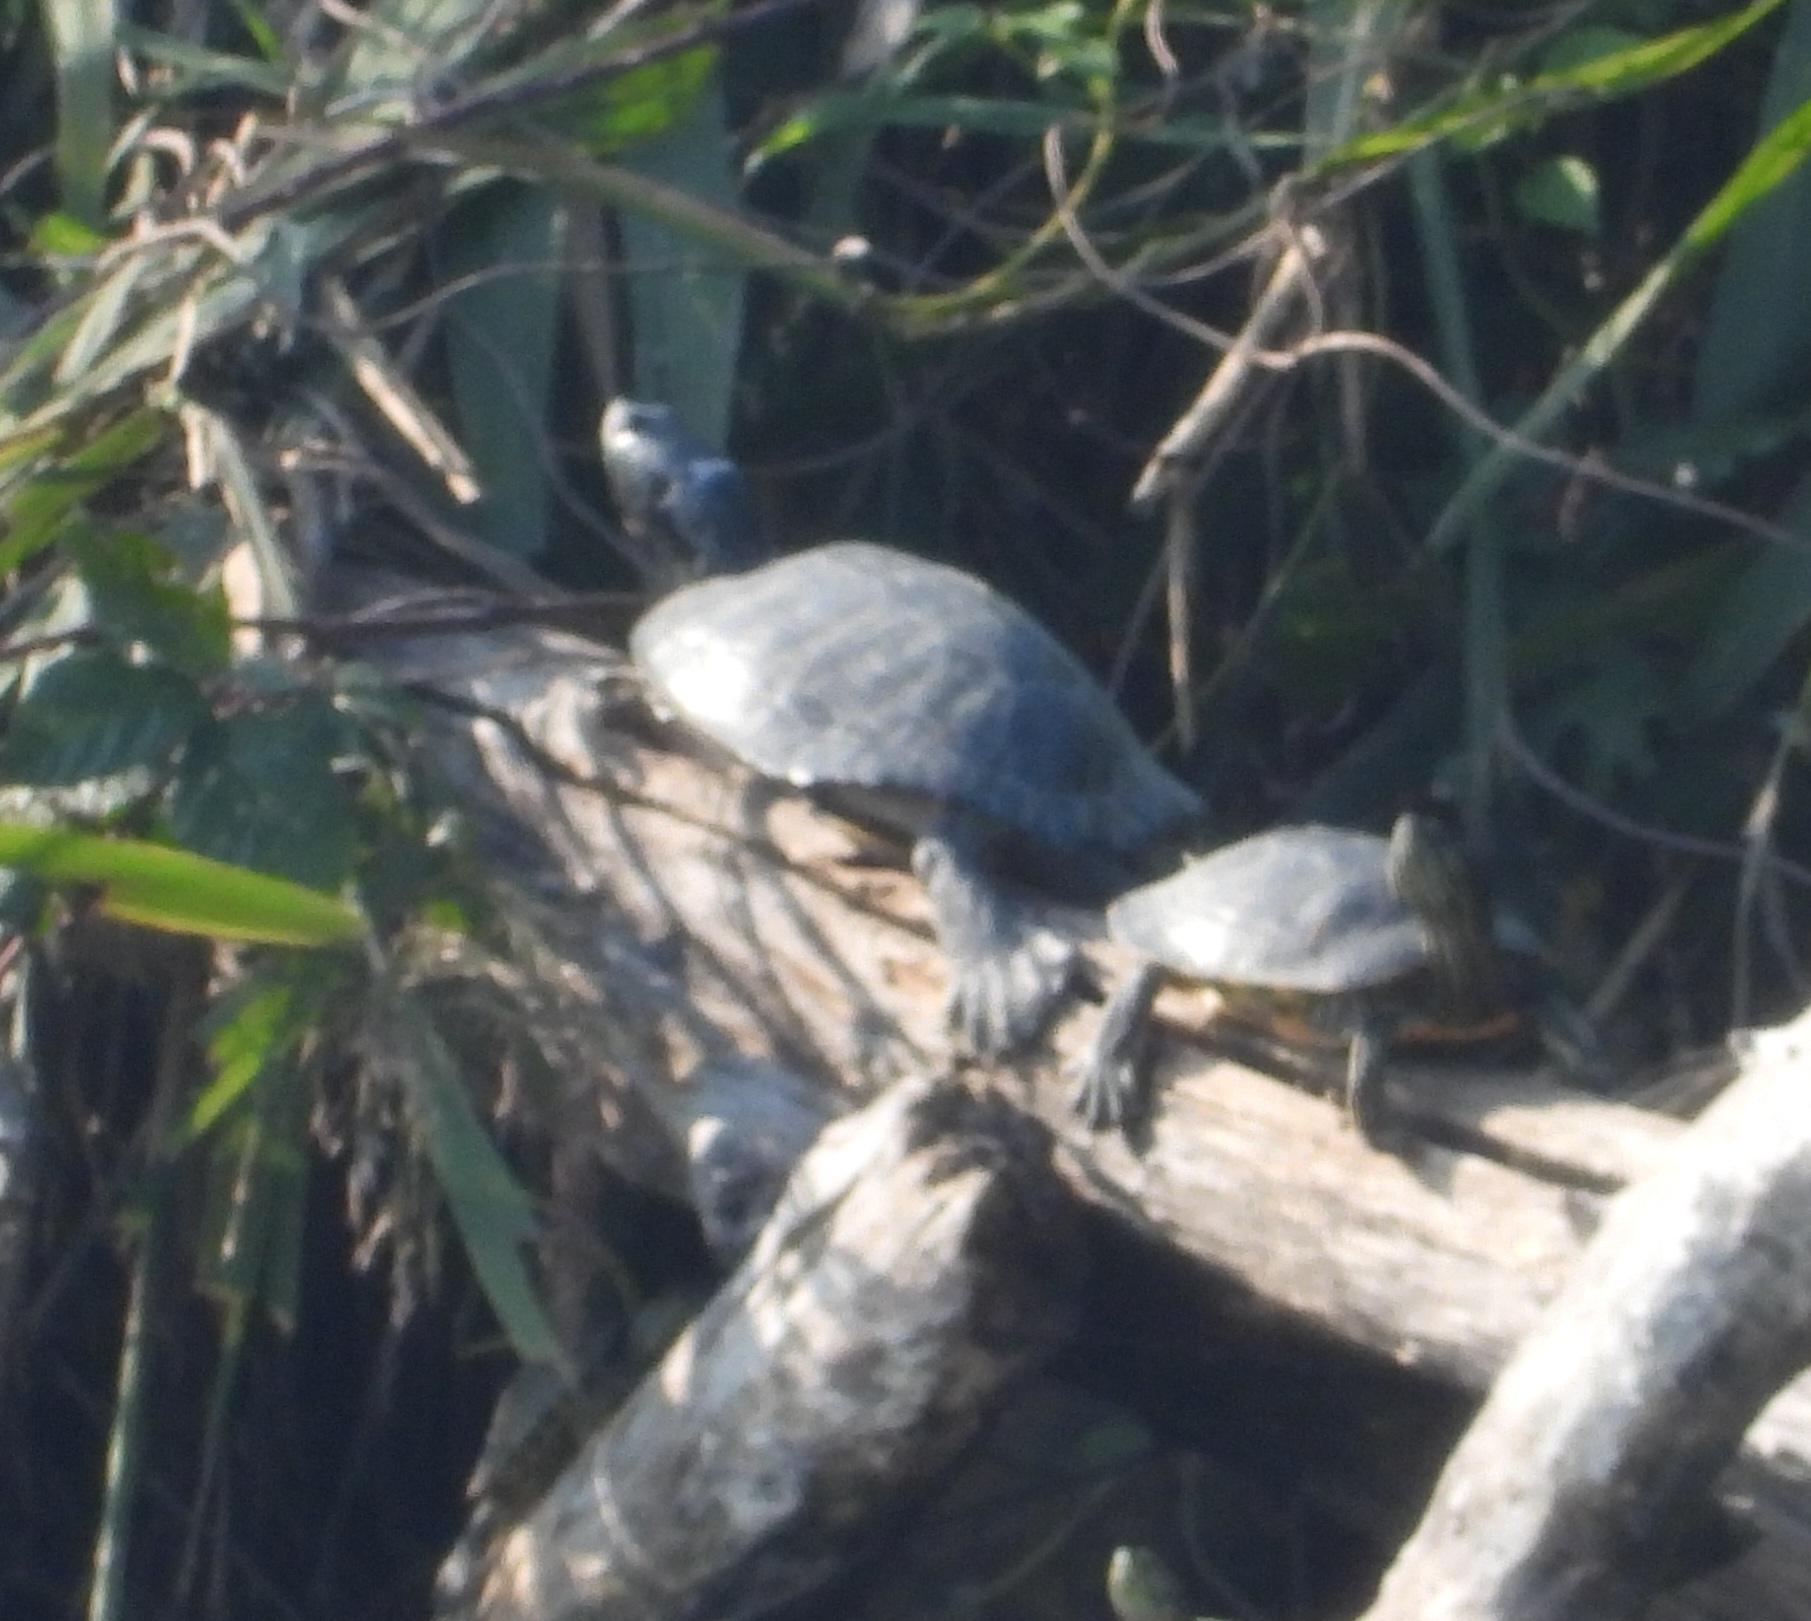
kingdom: Animalia
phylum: Chordata
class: Testudines
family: Emydidae
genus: Trachemys
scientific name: Trachemys scripta
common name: Slider
